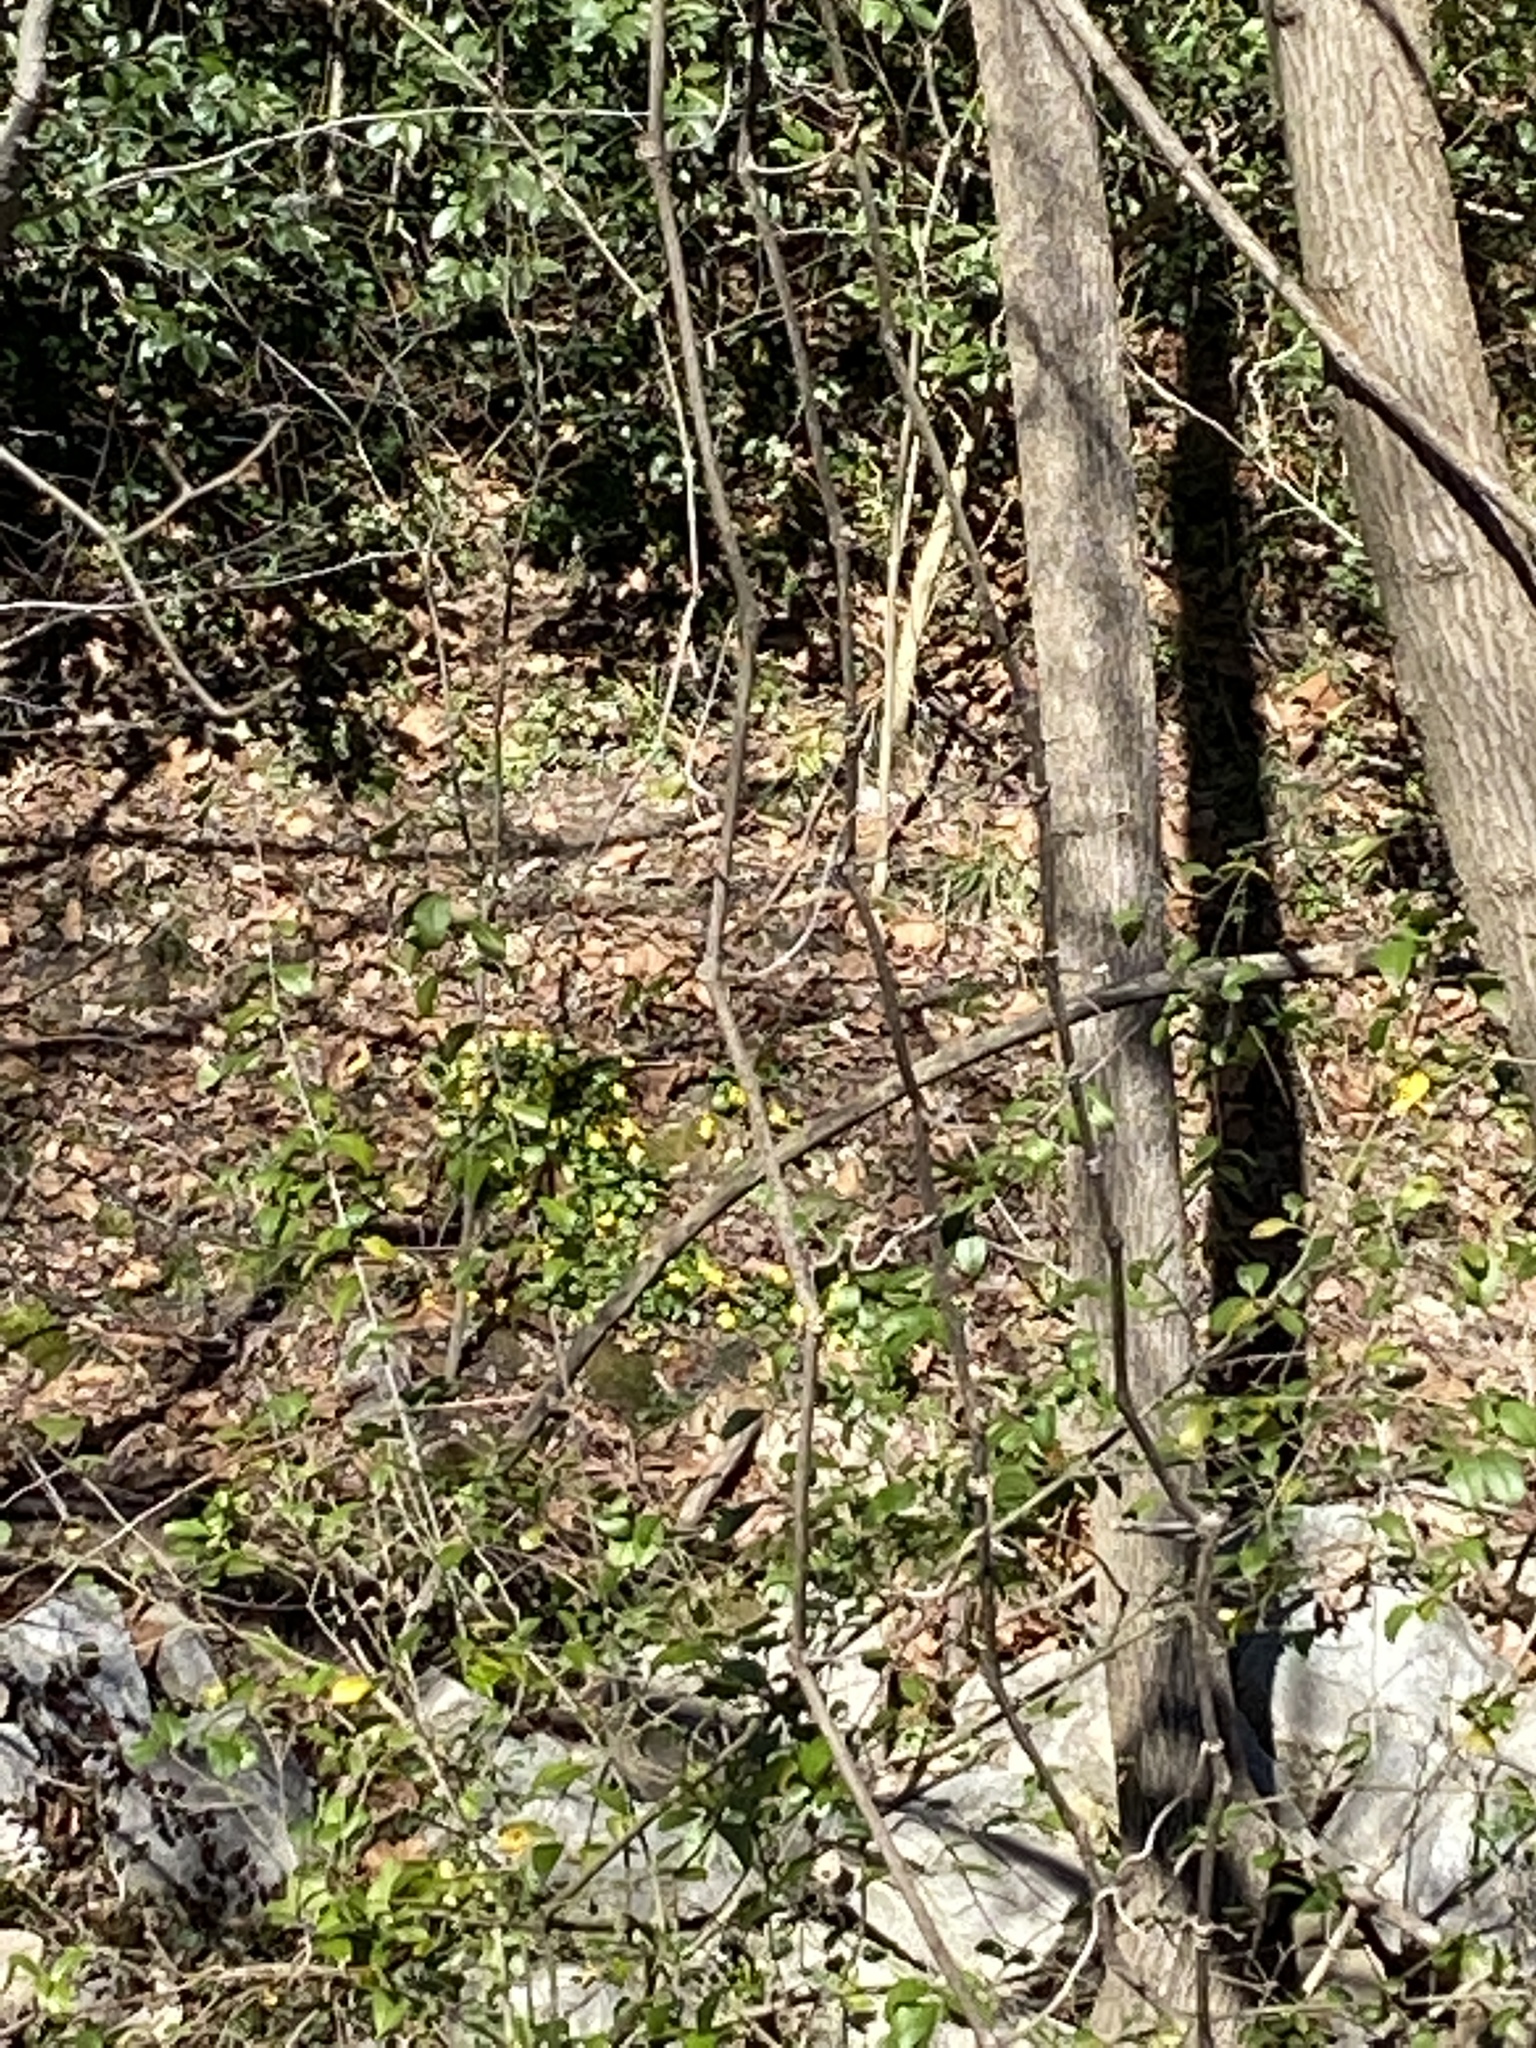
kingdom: Plantae
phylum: Tracheophyta
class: Magnoliopsida
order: Ranunculales
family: Ranunculaceae
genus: Ficaria
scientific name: Ficaria verna
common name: Lesser celandine
